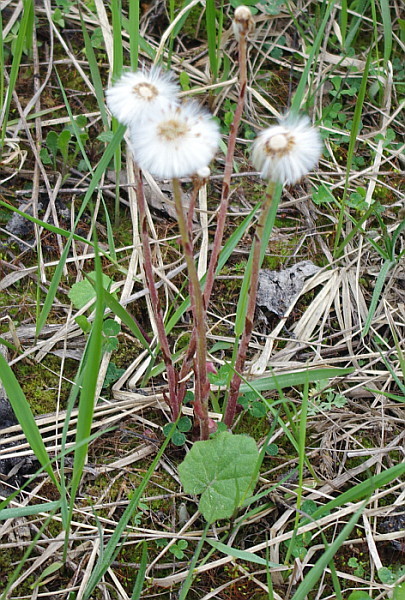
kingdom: Plantae
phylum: Tracheophyta
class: Magnoliopsida
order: Asterales
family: Asteraceae
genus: Tussilago
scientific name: Tussilago farfara
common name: Coltsfoot
